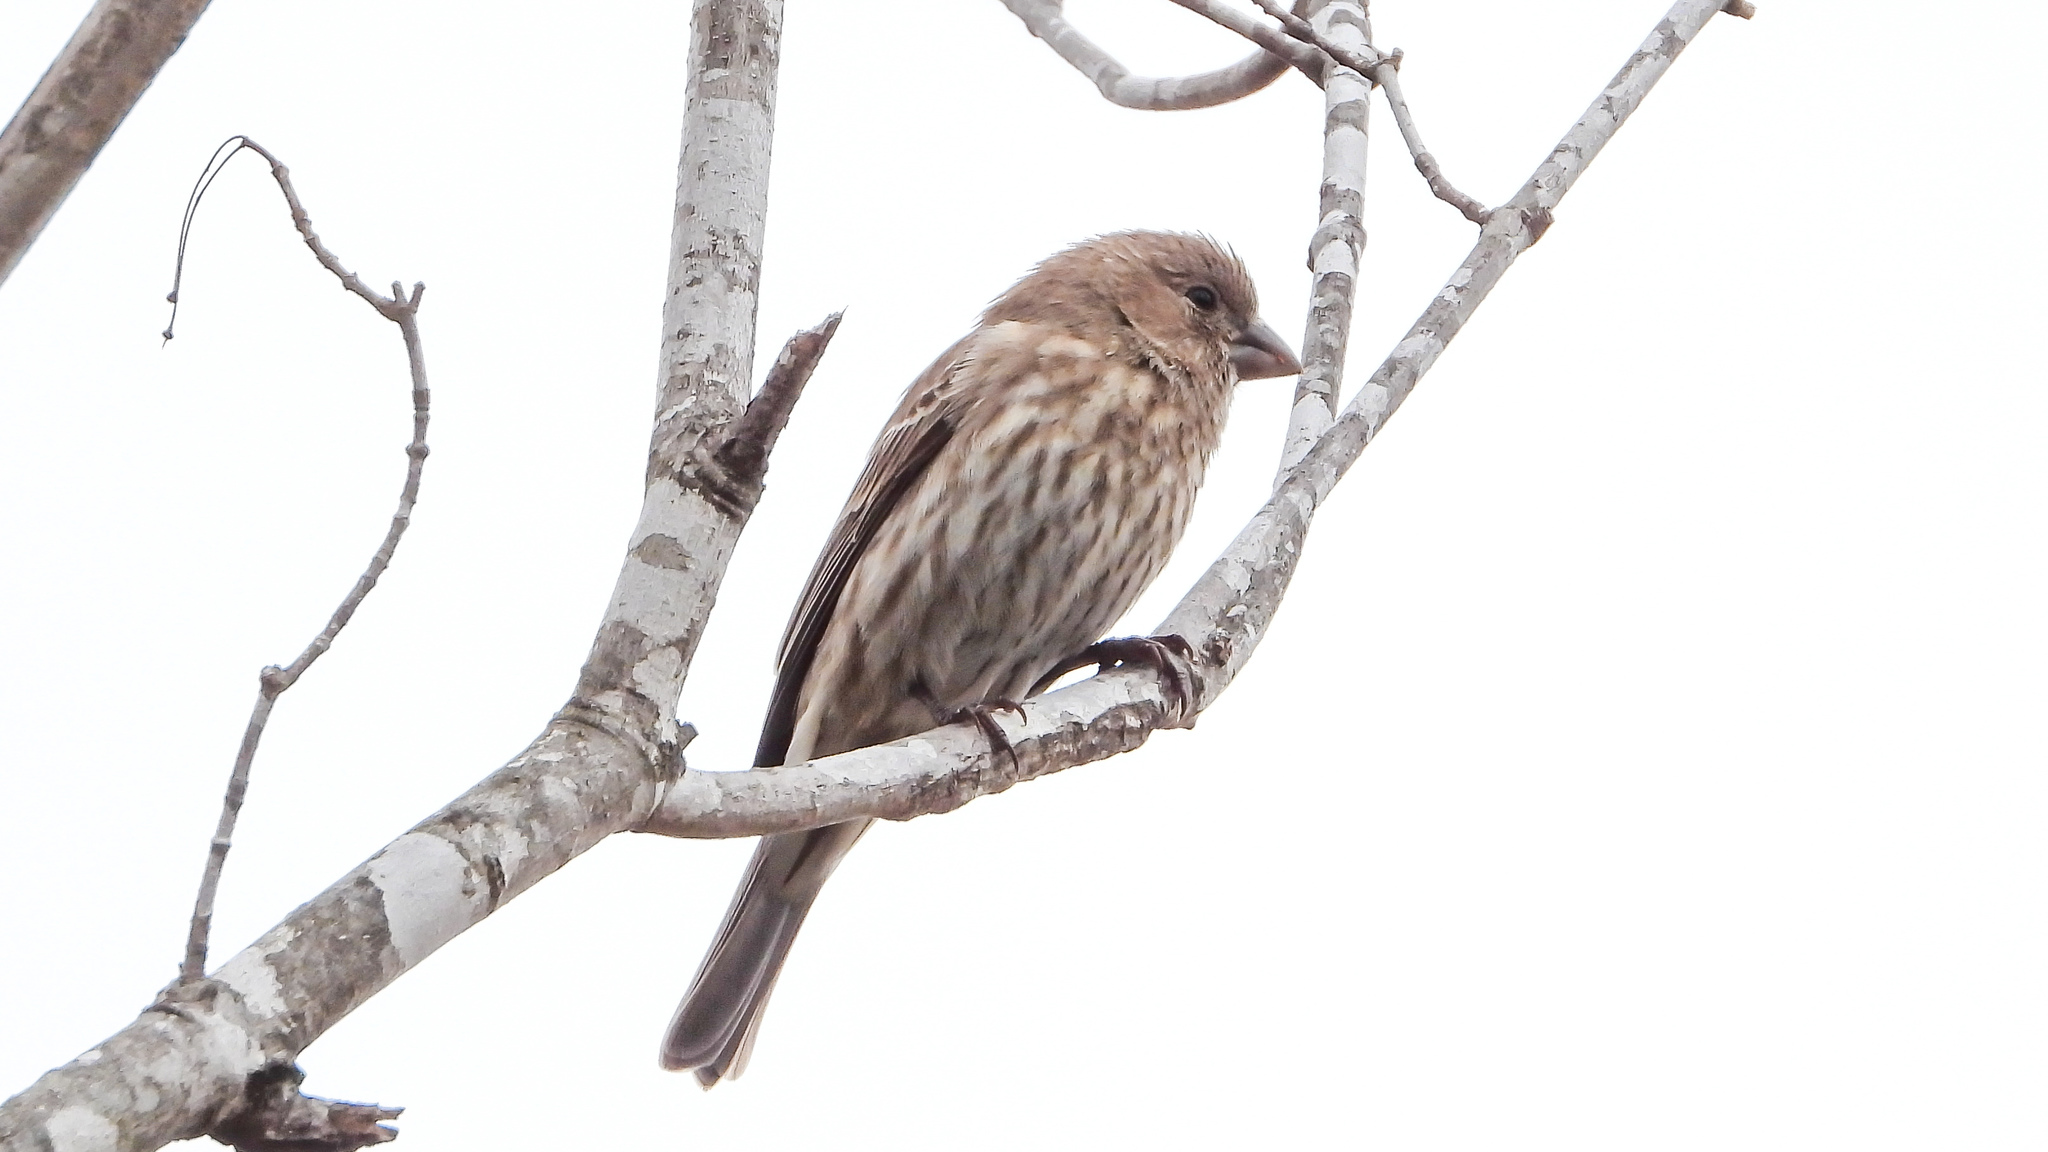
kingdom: Animalia
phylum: Chordata
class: Aves
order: Passeriformes
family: Fringillidae
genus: Haemorhous
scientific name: Haemorhous mexicanus
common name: House finch
